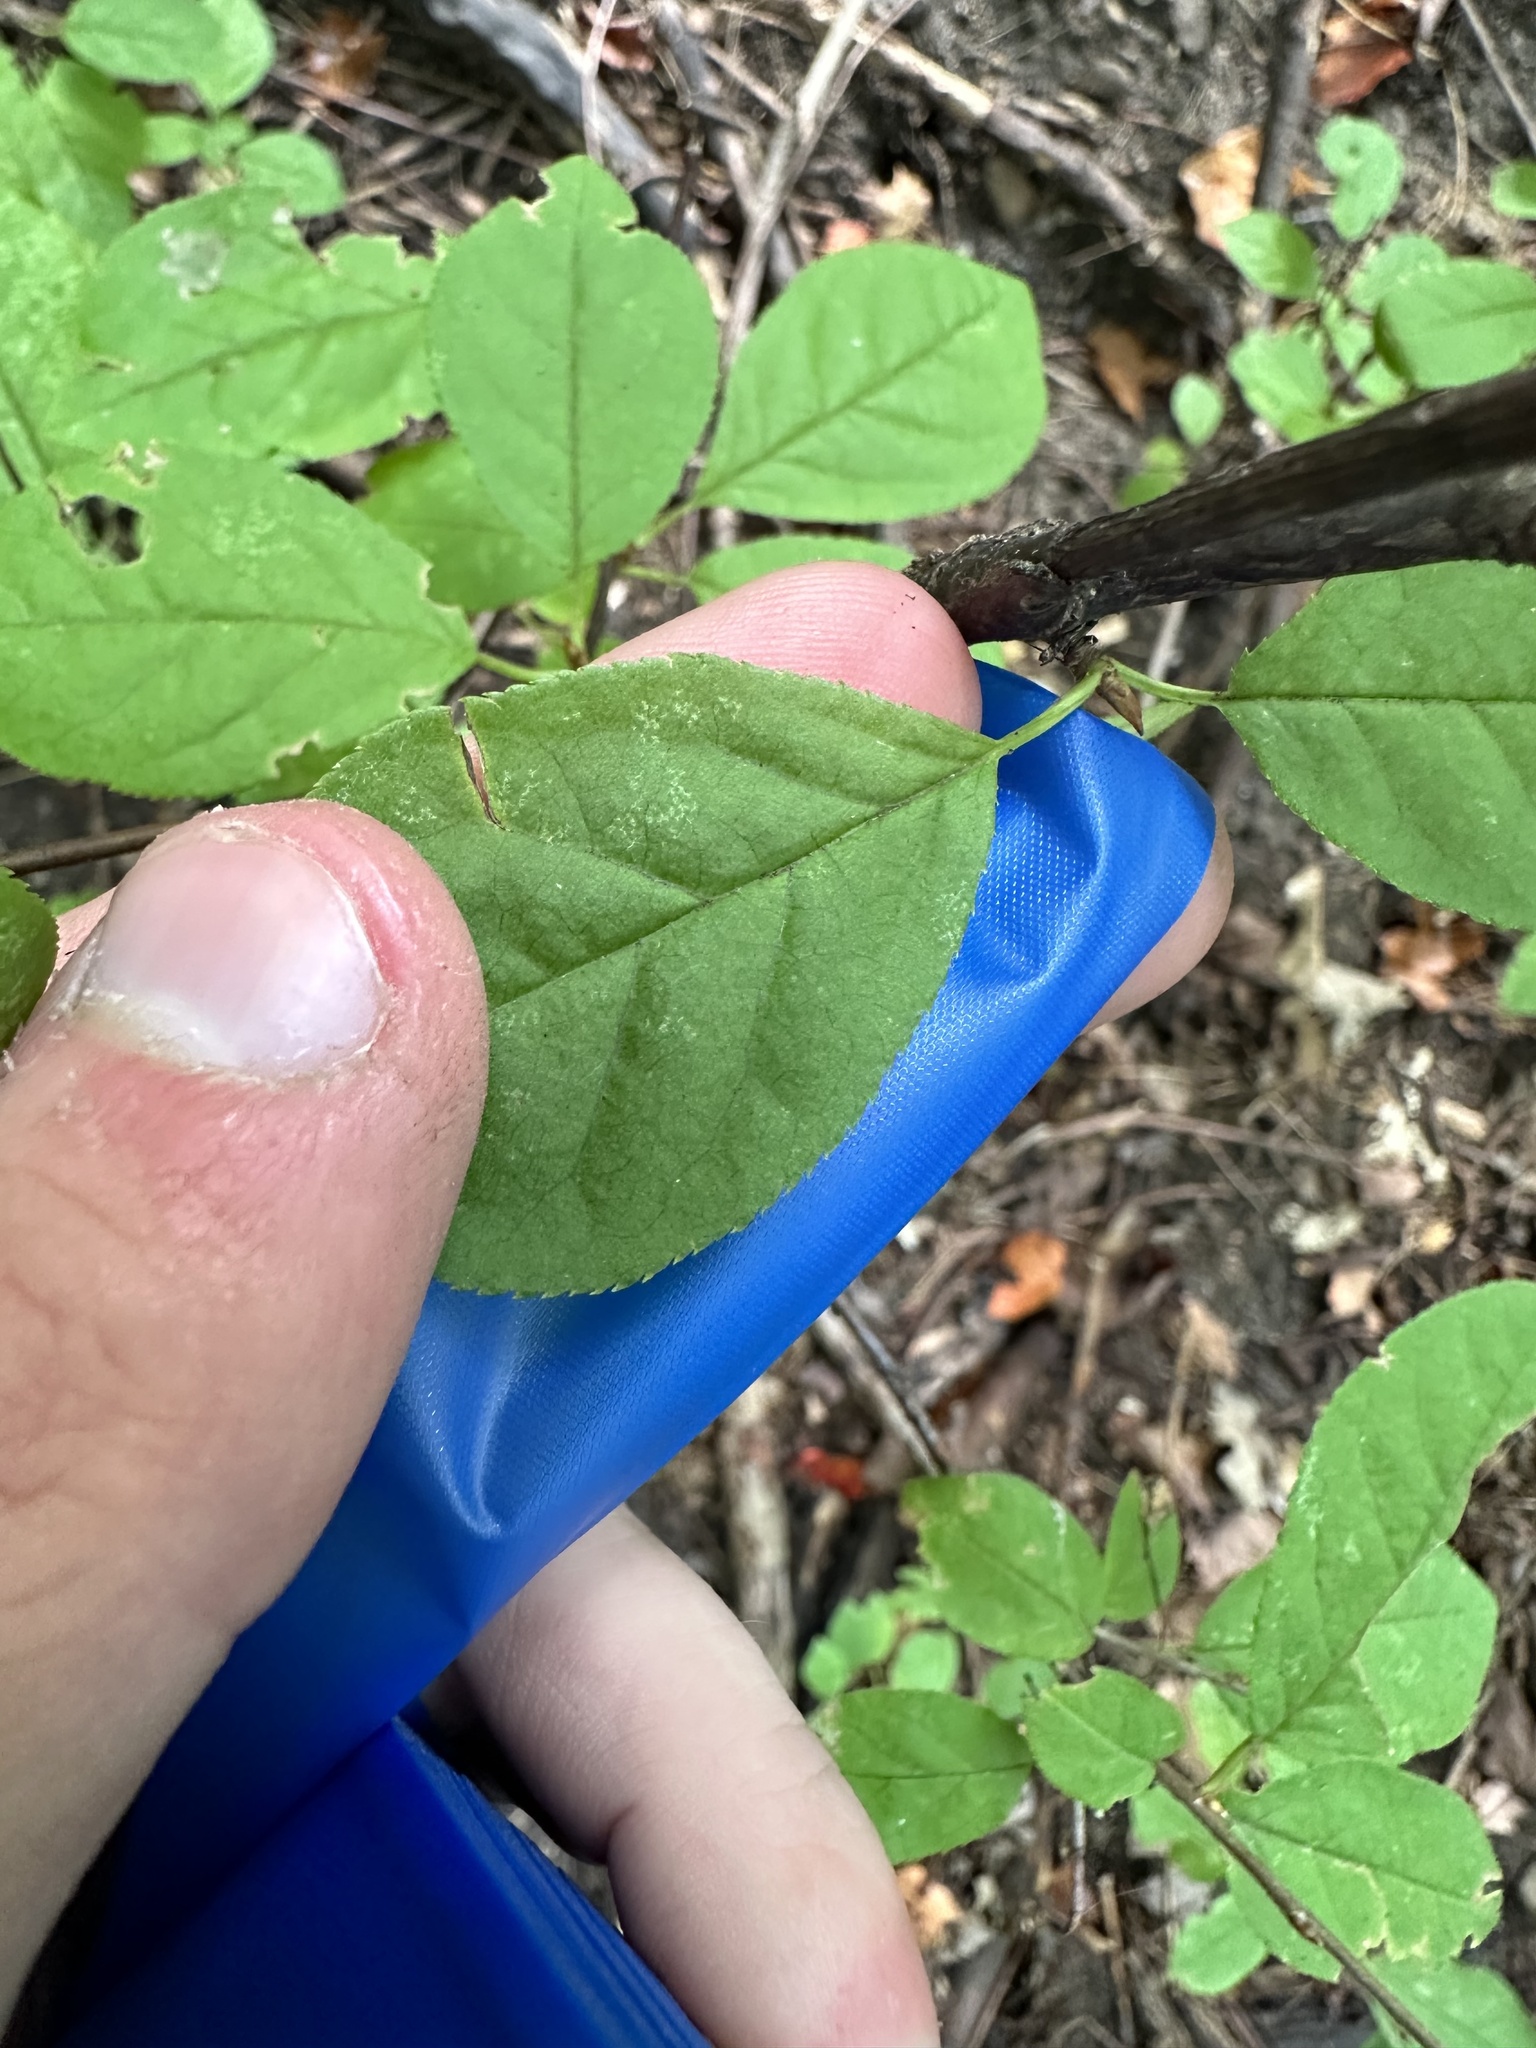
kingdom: Plantae
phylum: Tracheophyta
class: Magnoliopsida
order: Rosales
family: Rosaceae
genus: Prunus
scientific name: Prunus virginiana
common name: Chokecherry
